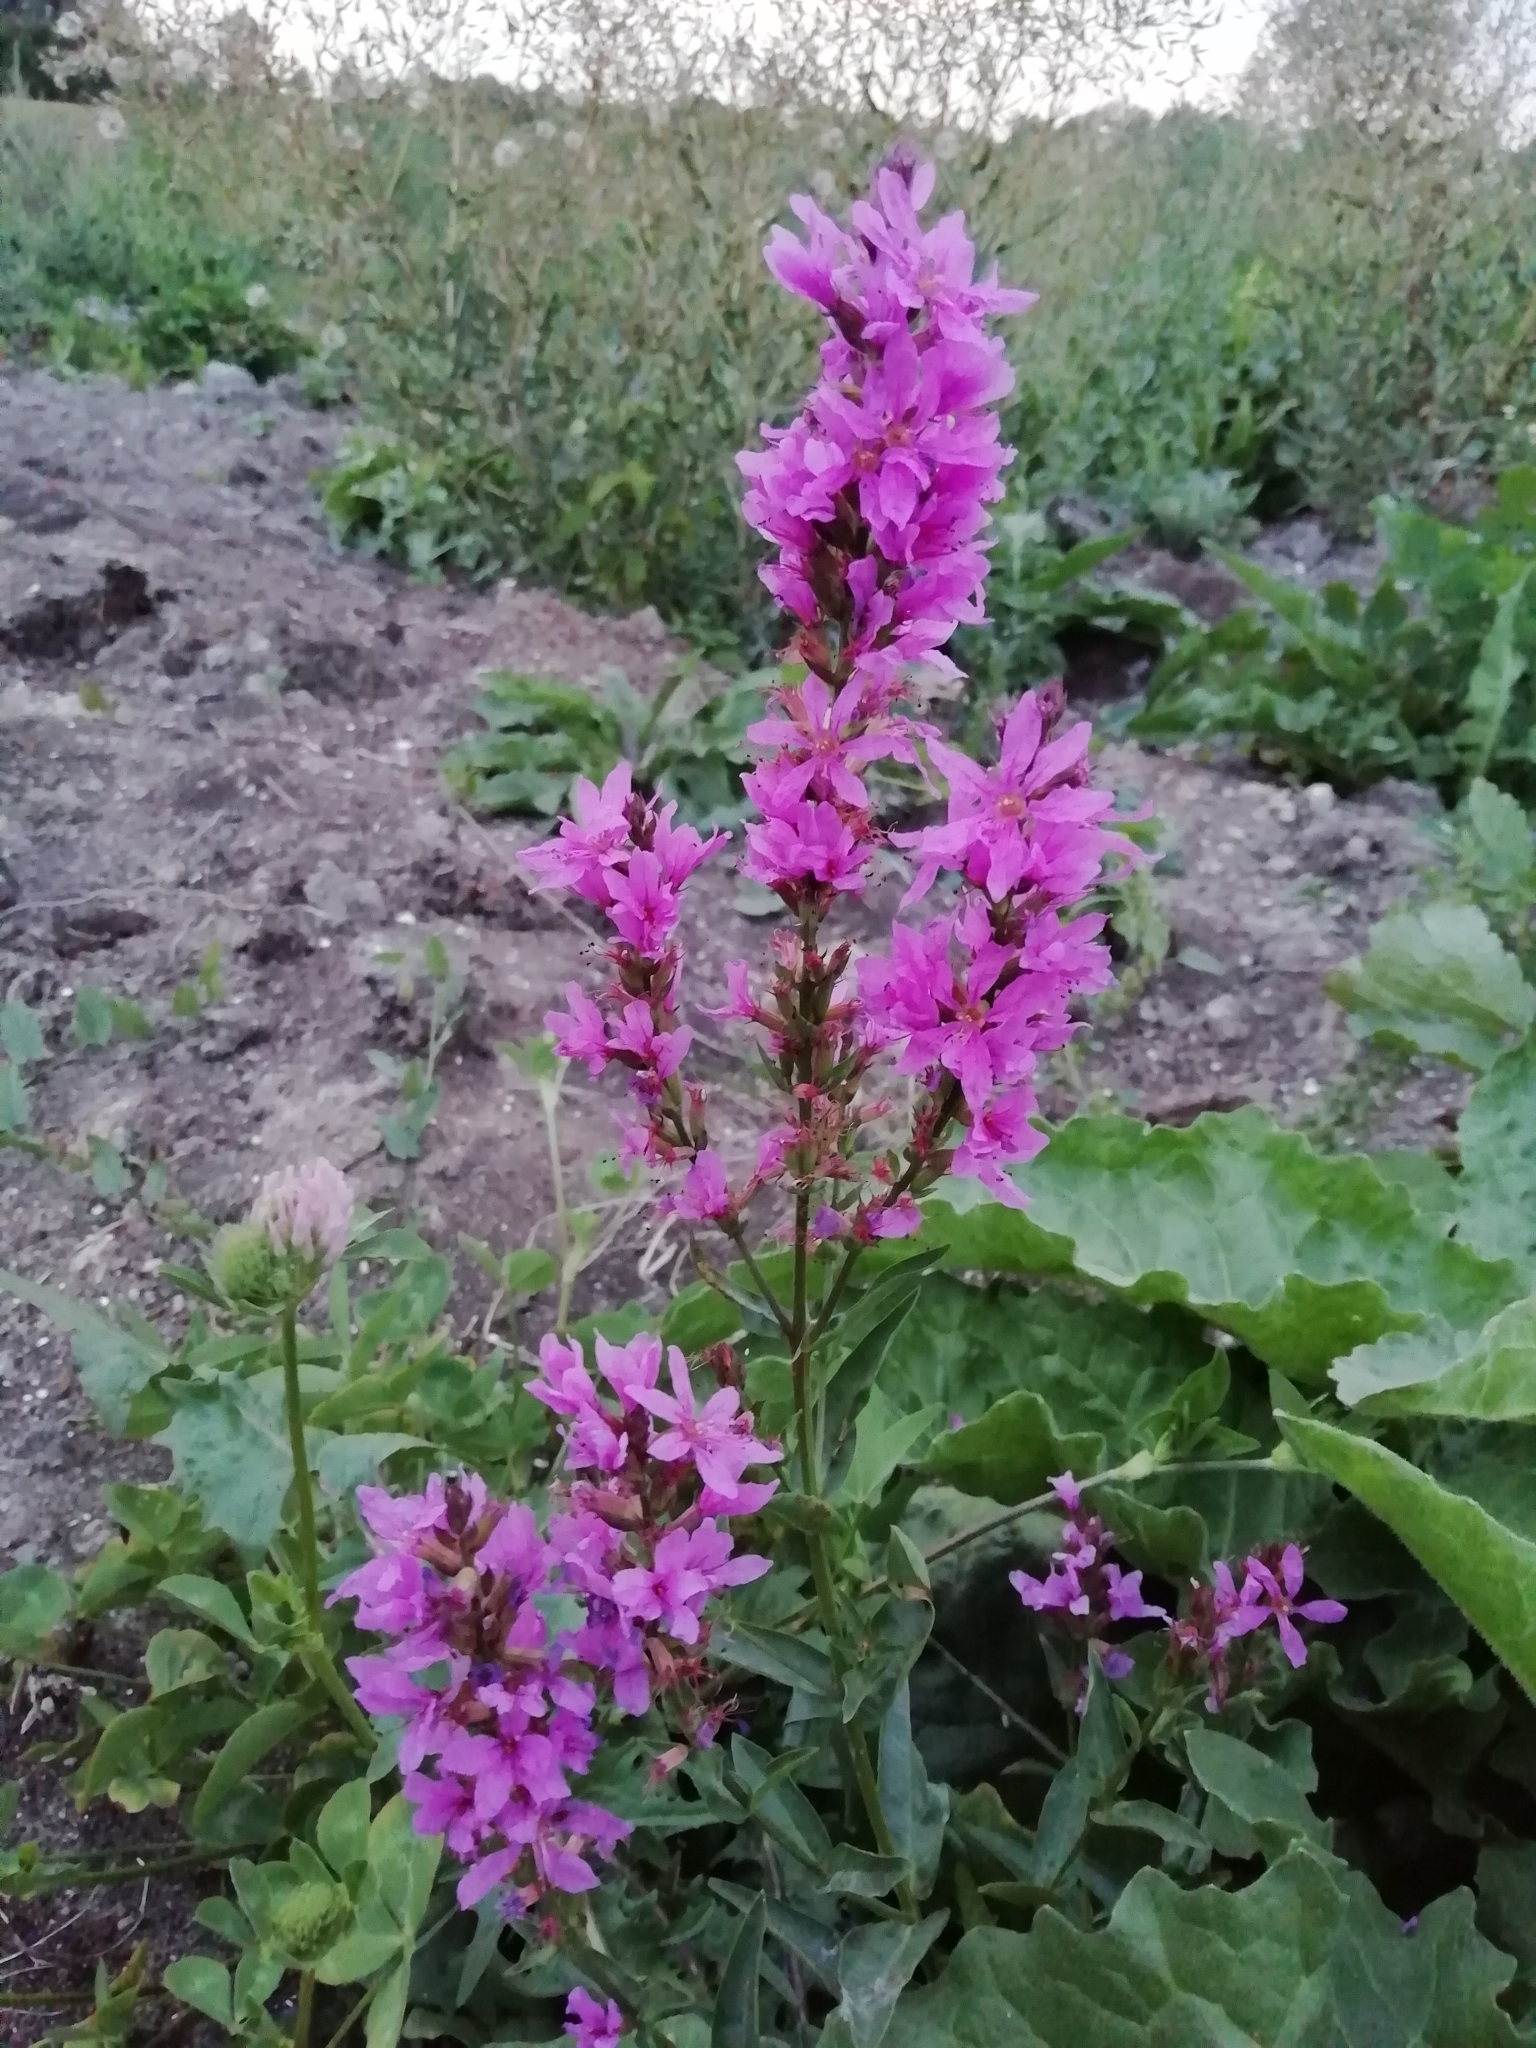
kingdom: Plantae
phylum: Tracheophyta
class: Magnoliopsida
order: Myrtales
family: Lythraceae
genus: Lythrum
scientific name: Lythrum salicaria
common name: Purple loosestrife
